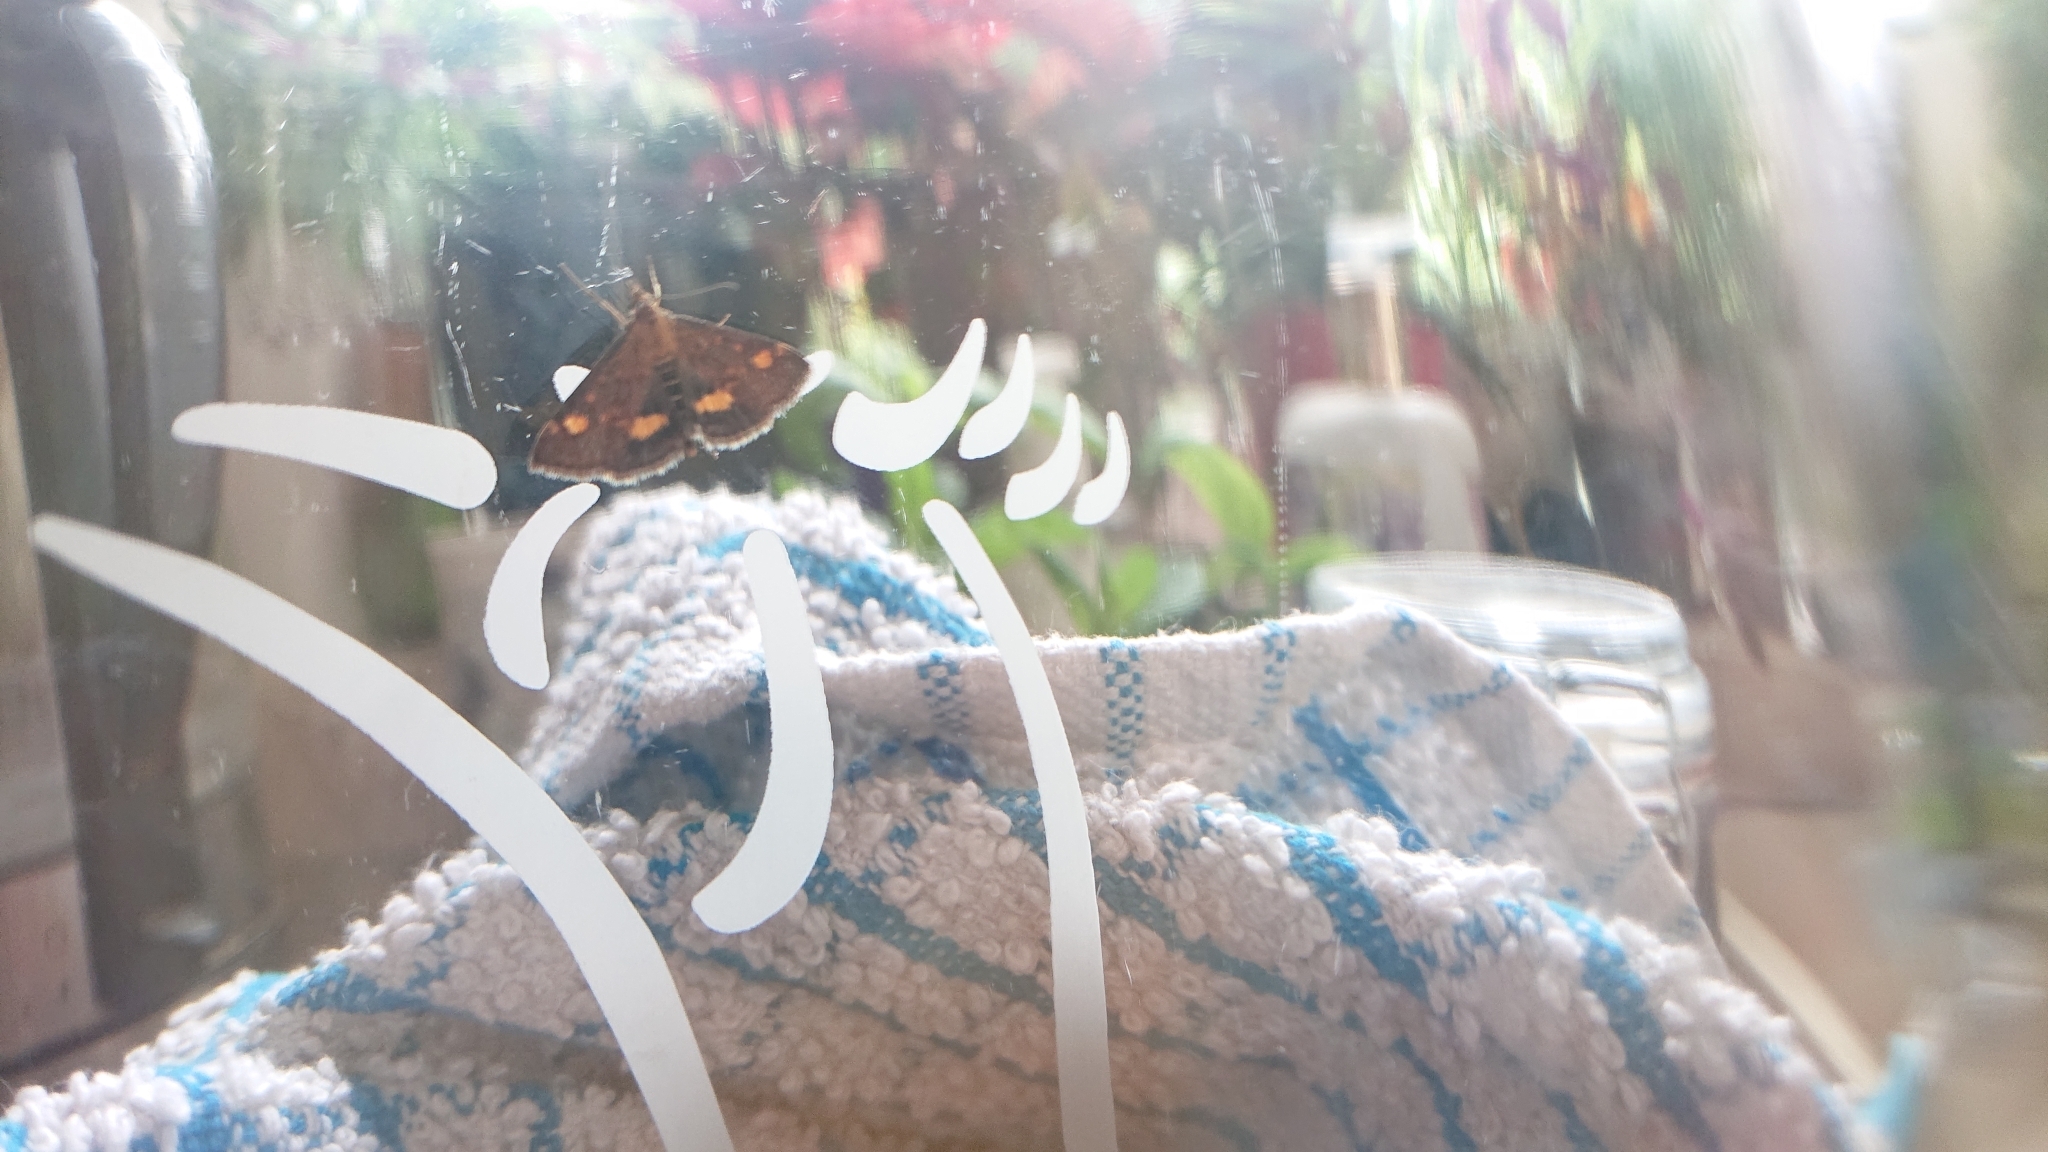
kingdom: Animalia
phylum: Arthropoda
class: Insecta
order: Lepidoptera
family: Crambidae
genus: Pyrausta
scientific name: Pyrausta aurata
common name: Small purple & gold
